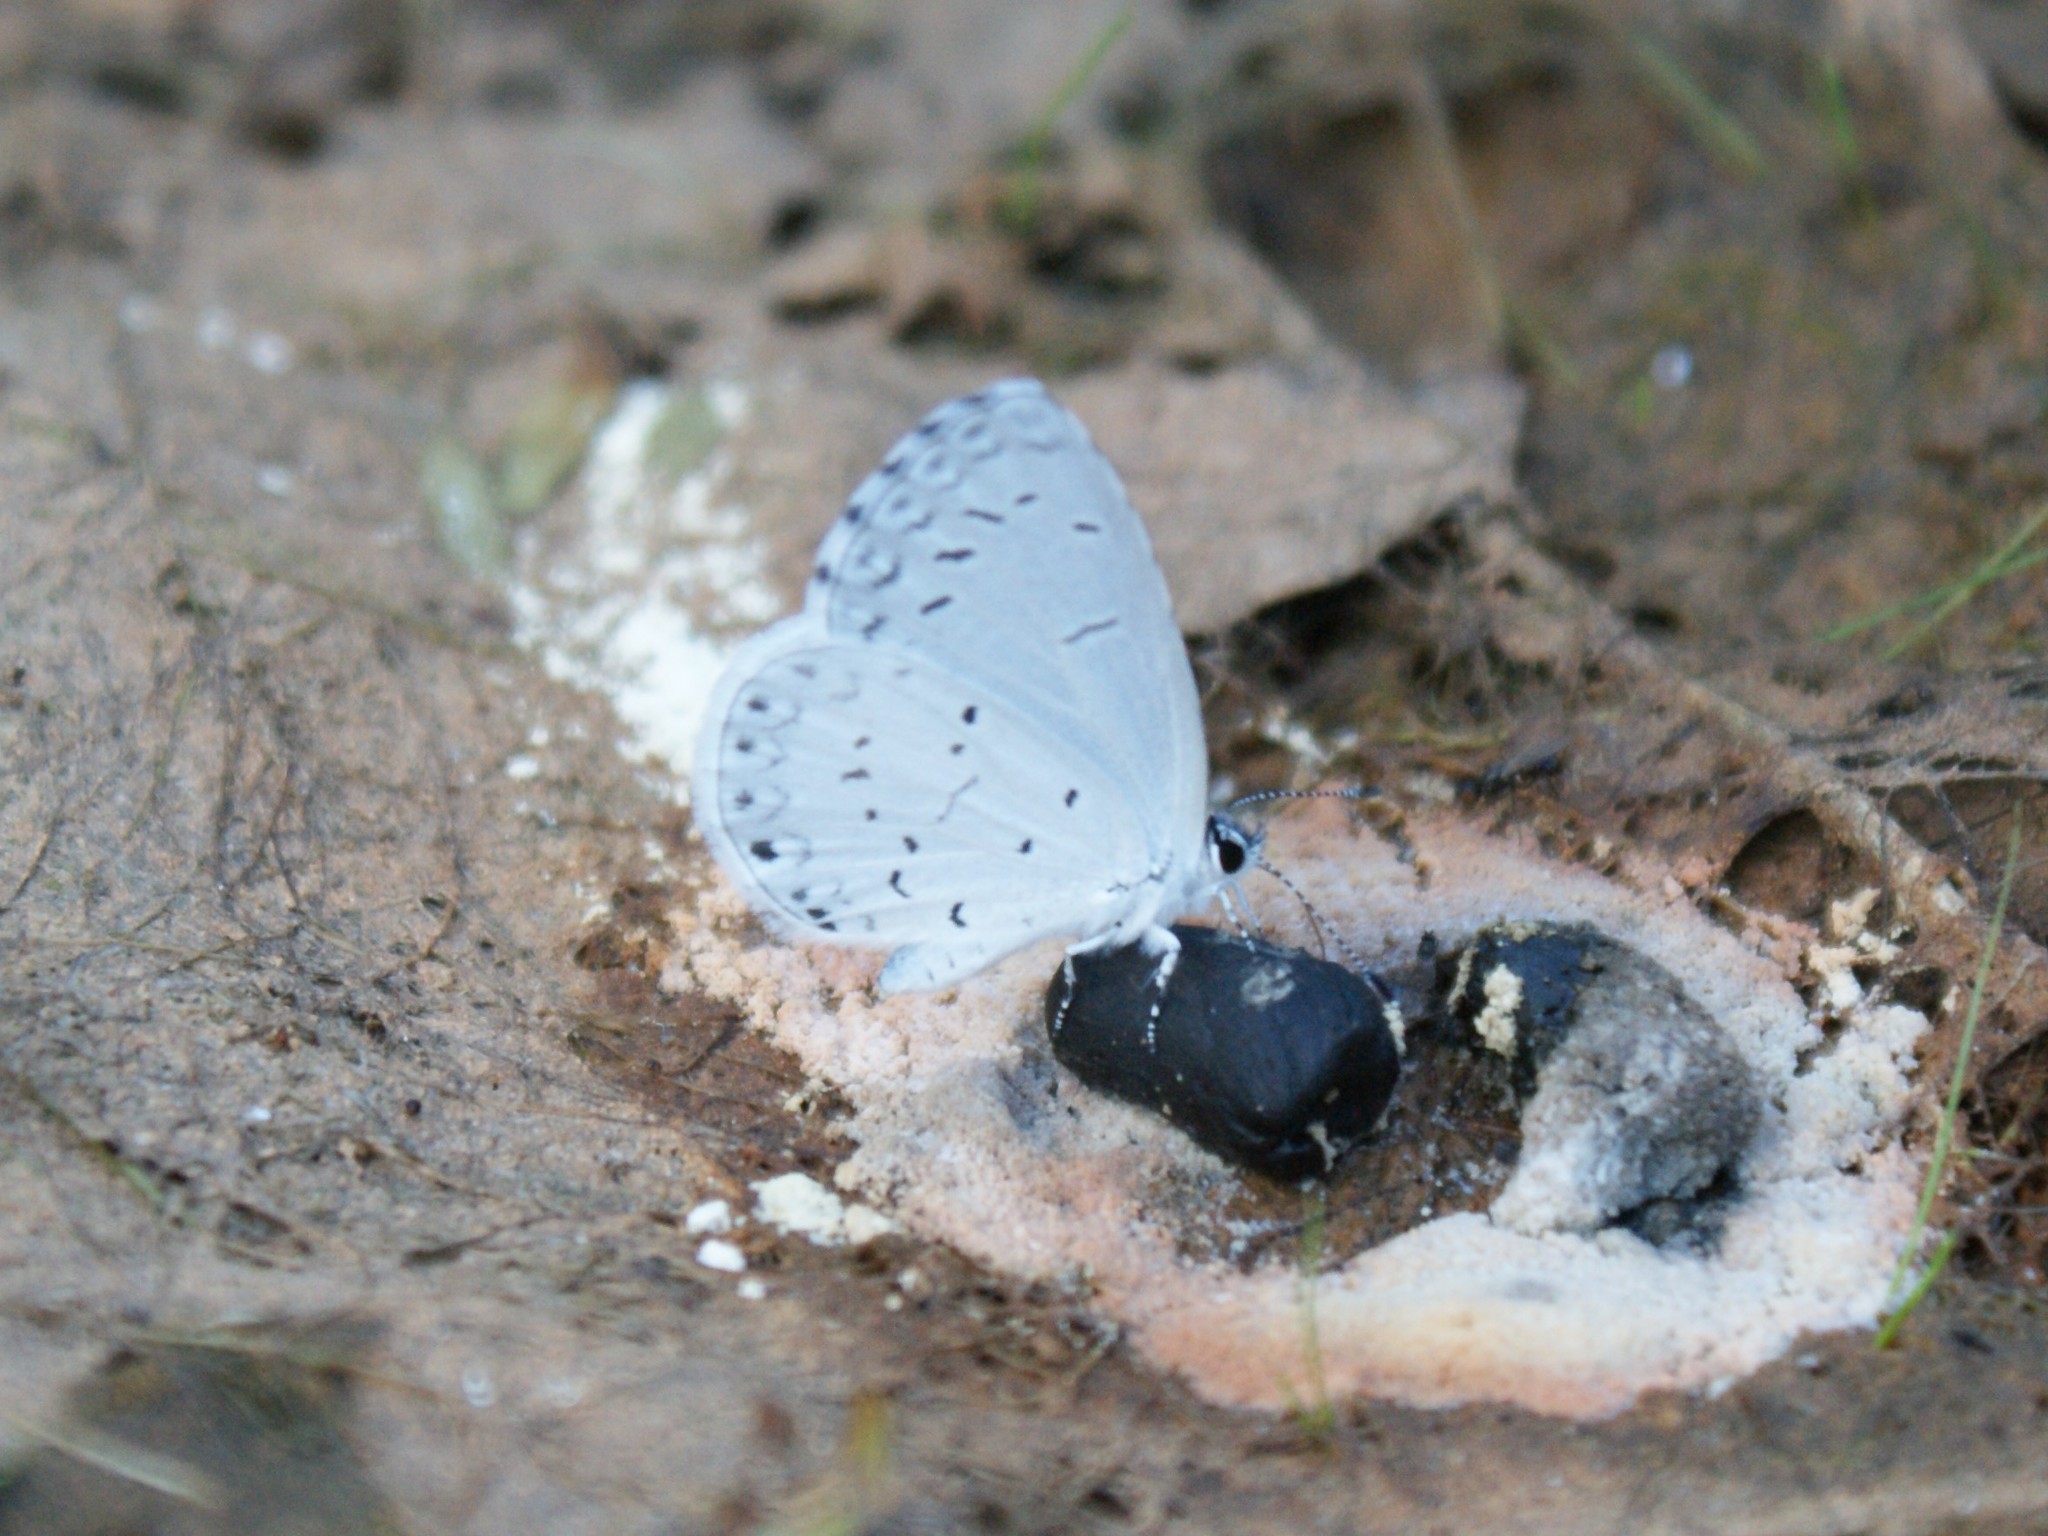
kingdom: Animalia
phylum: Arthropoda
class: Insecta
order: Lepidoptera
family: Lycaenidae
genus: Cyaniris
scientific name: Cyaniris neglecta
